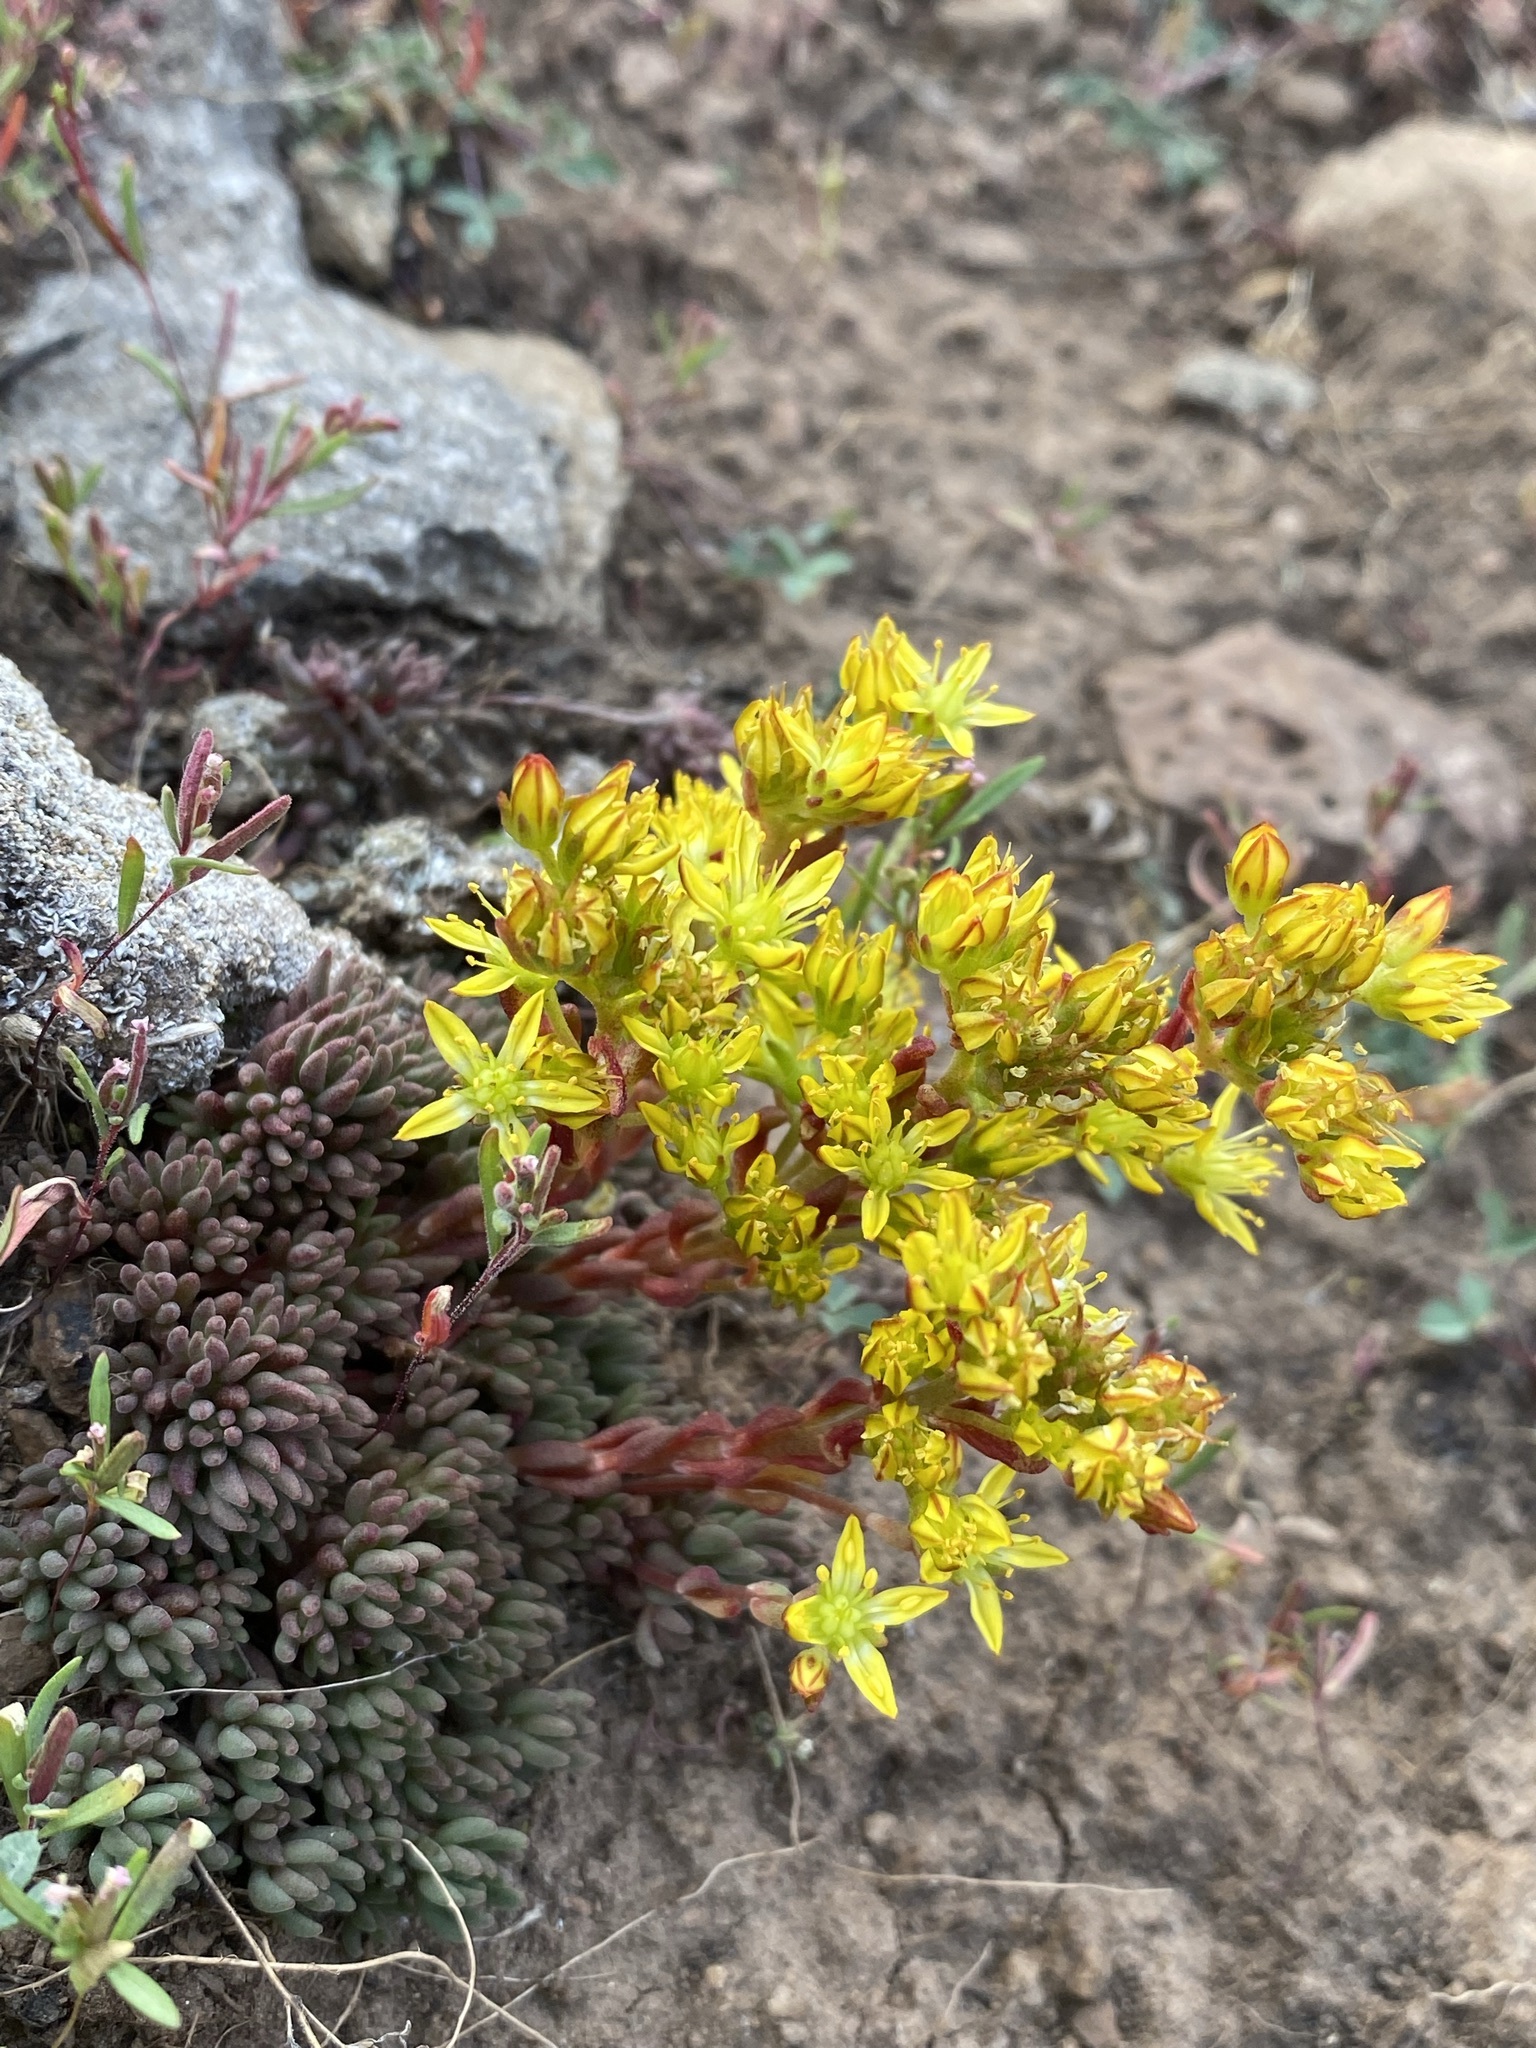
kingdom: Plantae
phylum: Tracheophyta
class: Magnoliopsida
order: Saxifragales
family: Crassulaceae
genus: Sedum
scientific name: Sedum lanceolatum
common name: Common stonecrop
